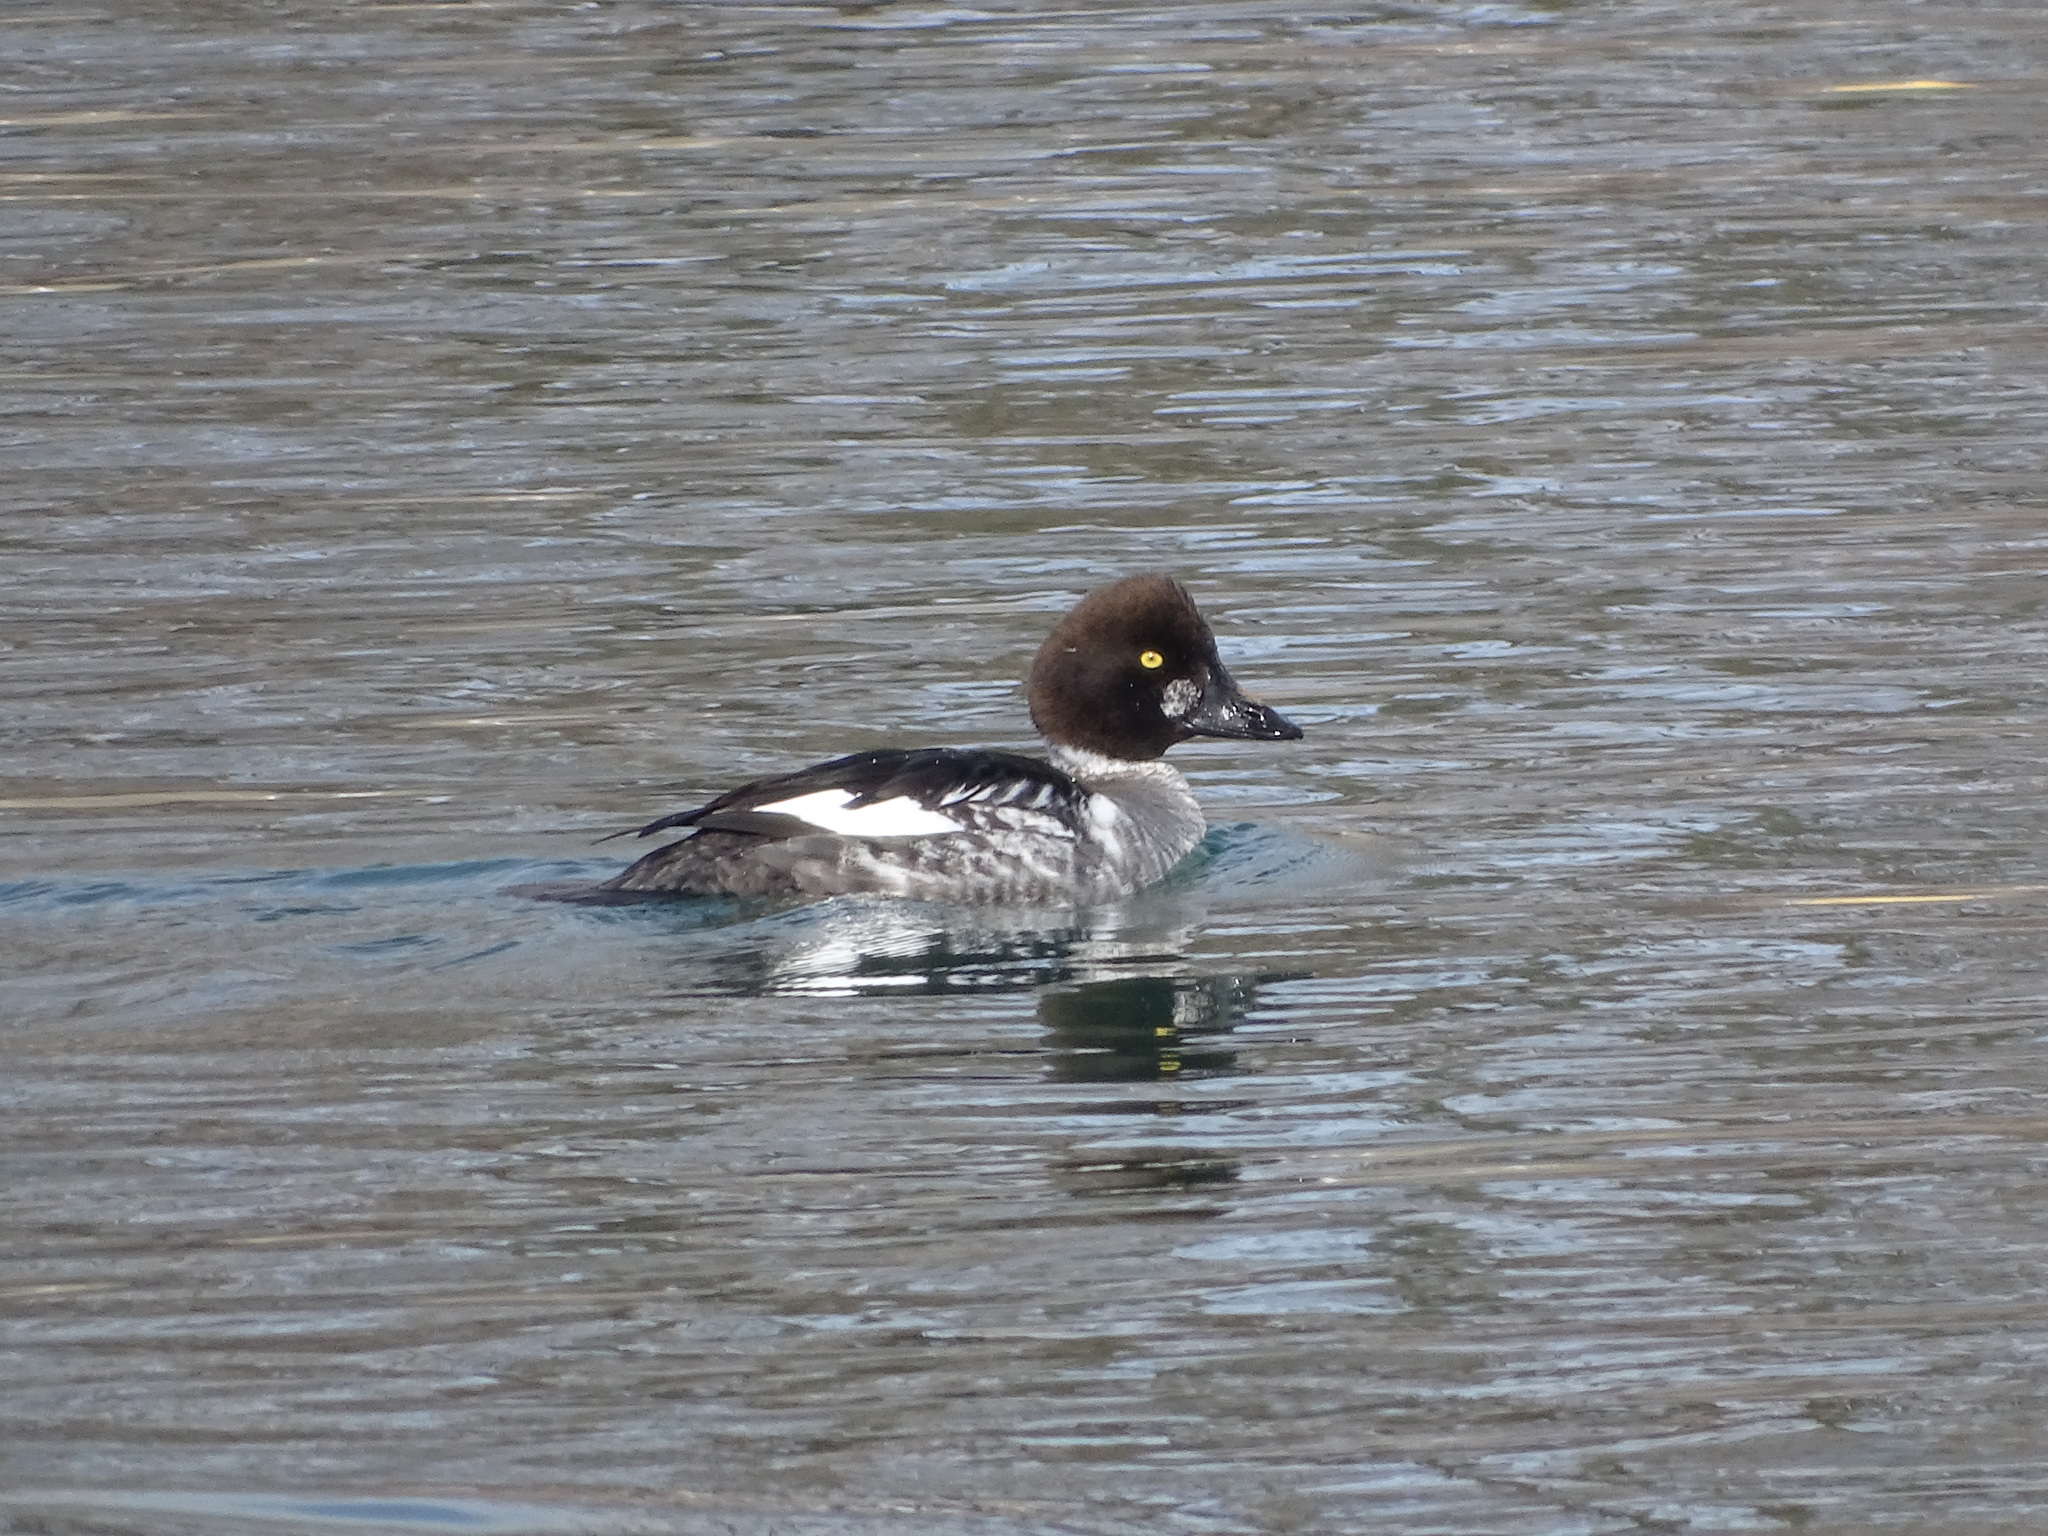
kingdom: Animalia
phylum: Chordata
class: Aves
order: Anseriformes
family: Anatidae
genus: Bucephala
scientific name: Bucephala clangula
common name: Common goldeneye
